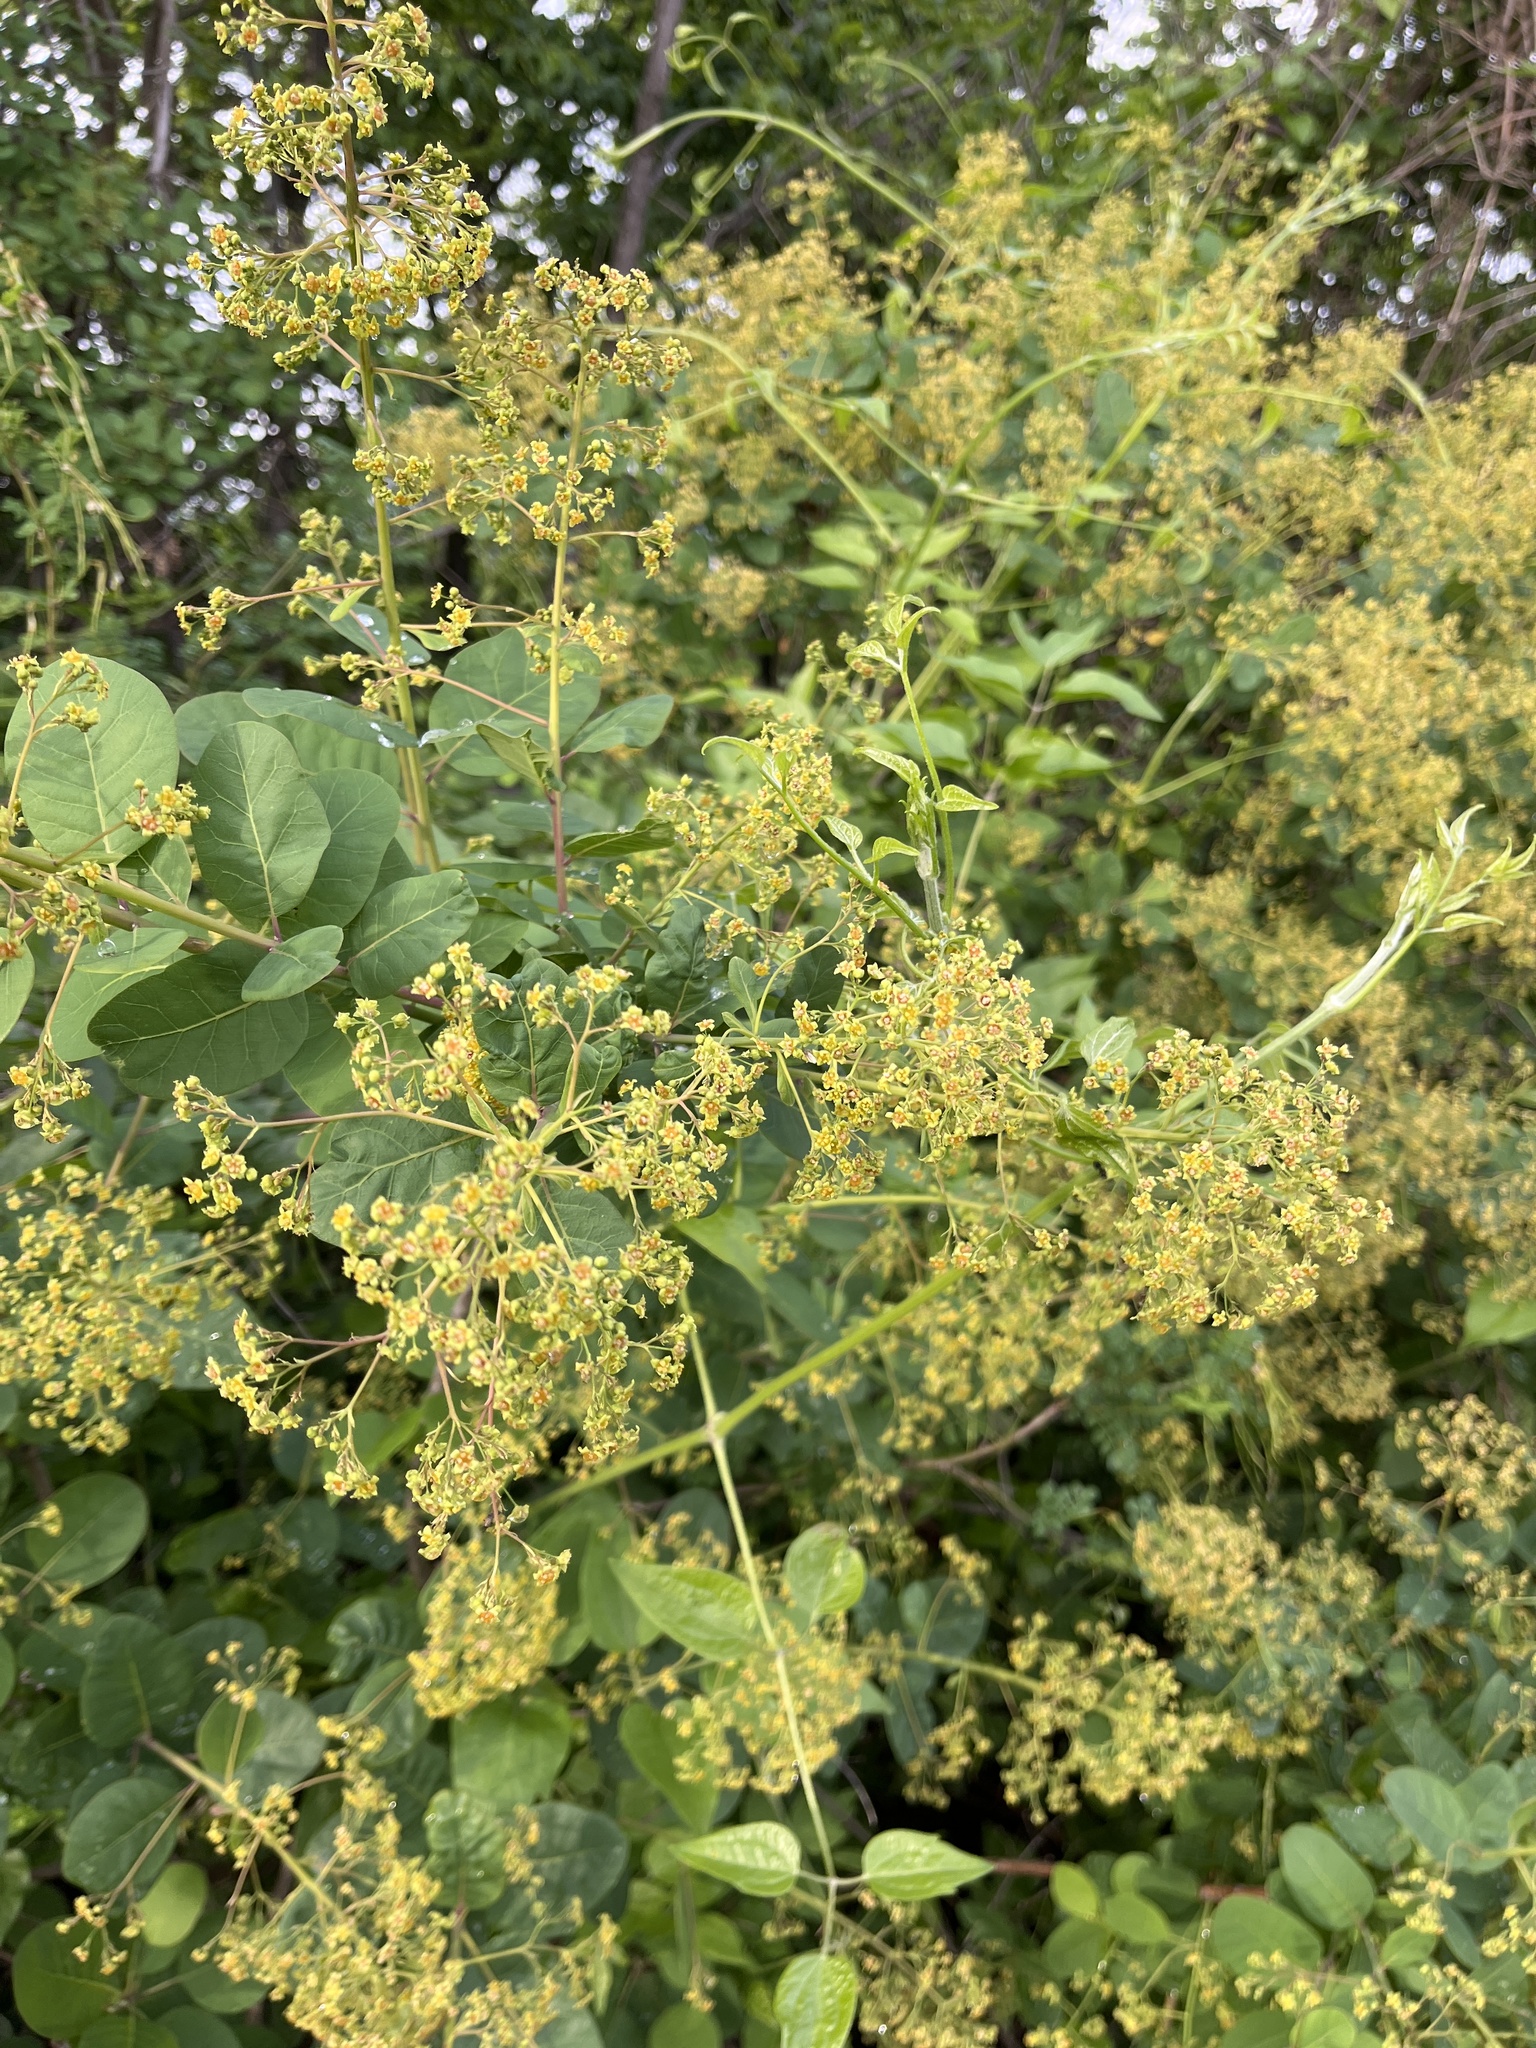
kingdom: Plantae
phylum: Tracheophyta
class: Magnoliopsida
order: Sapindales
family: Anacardiaceae
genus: Cotinus
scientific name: Cotinus coggygria
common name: Smoke-tree
